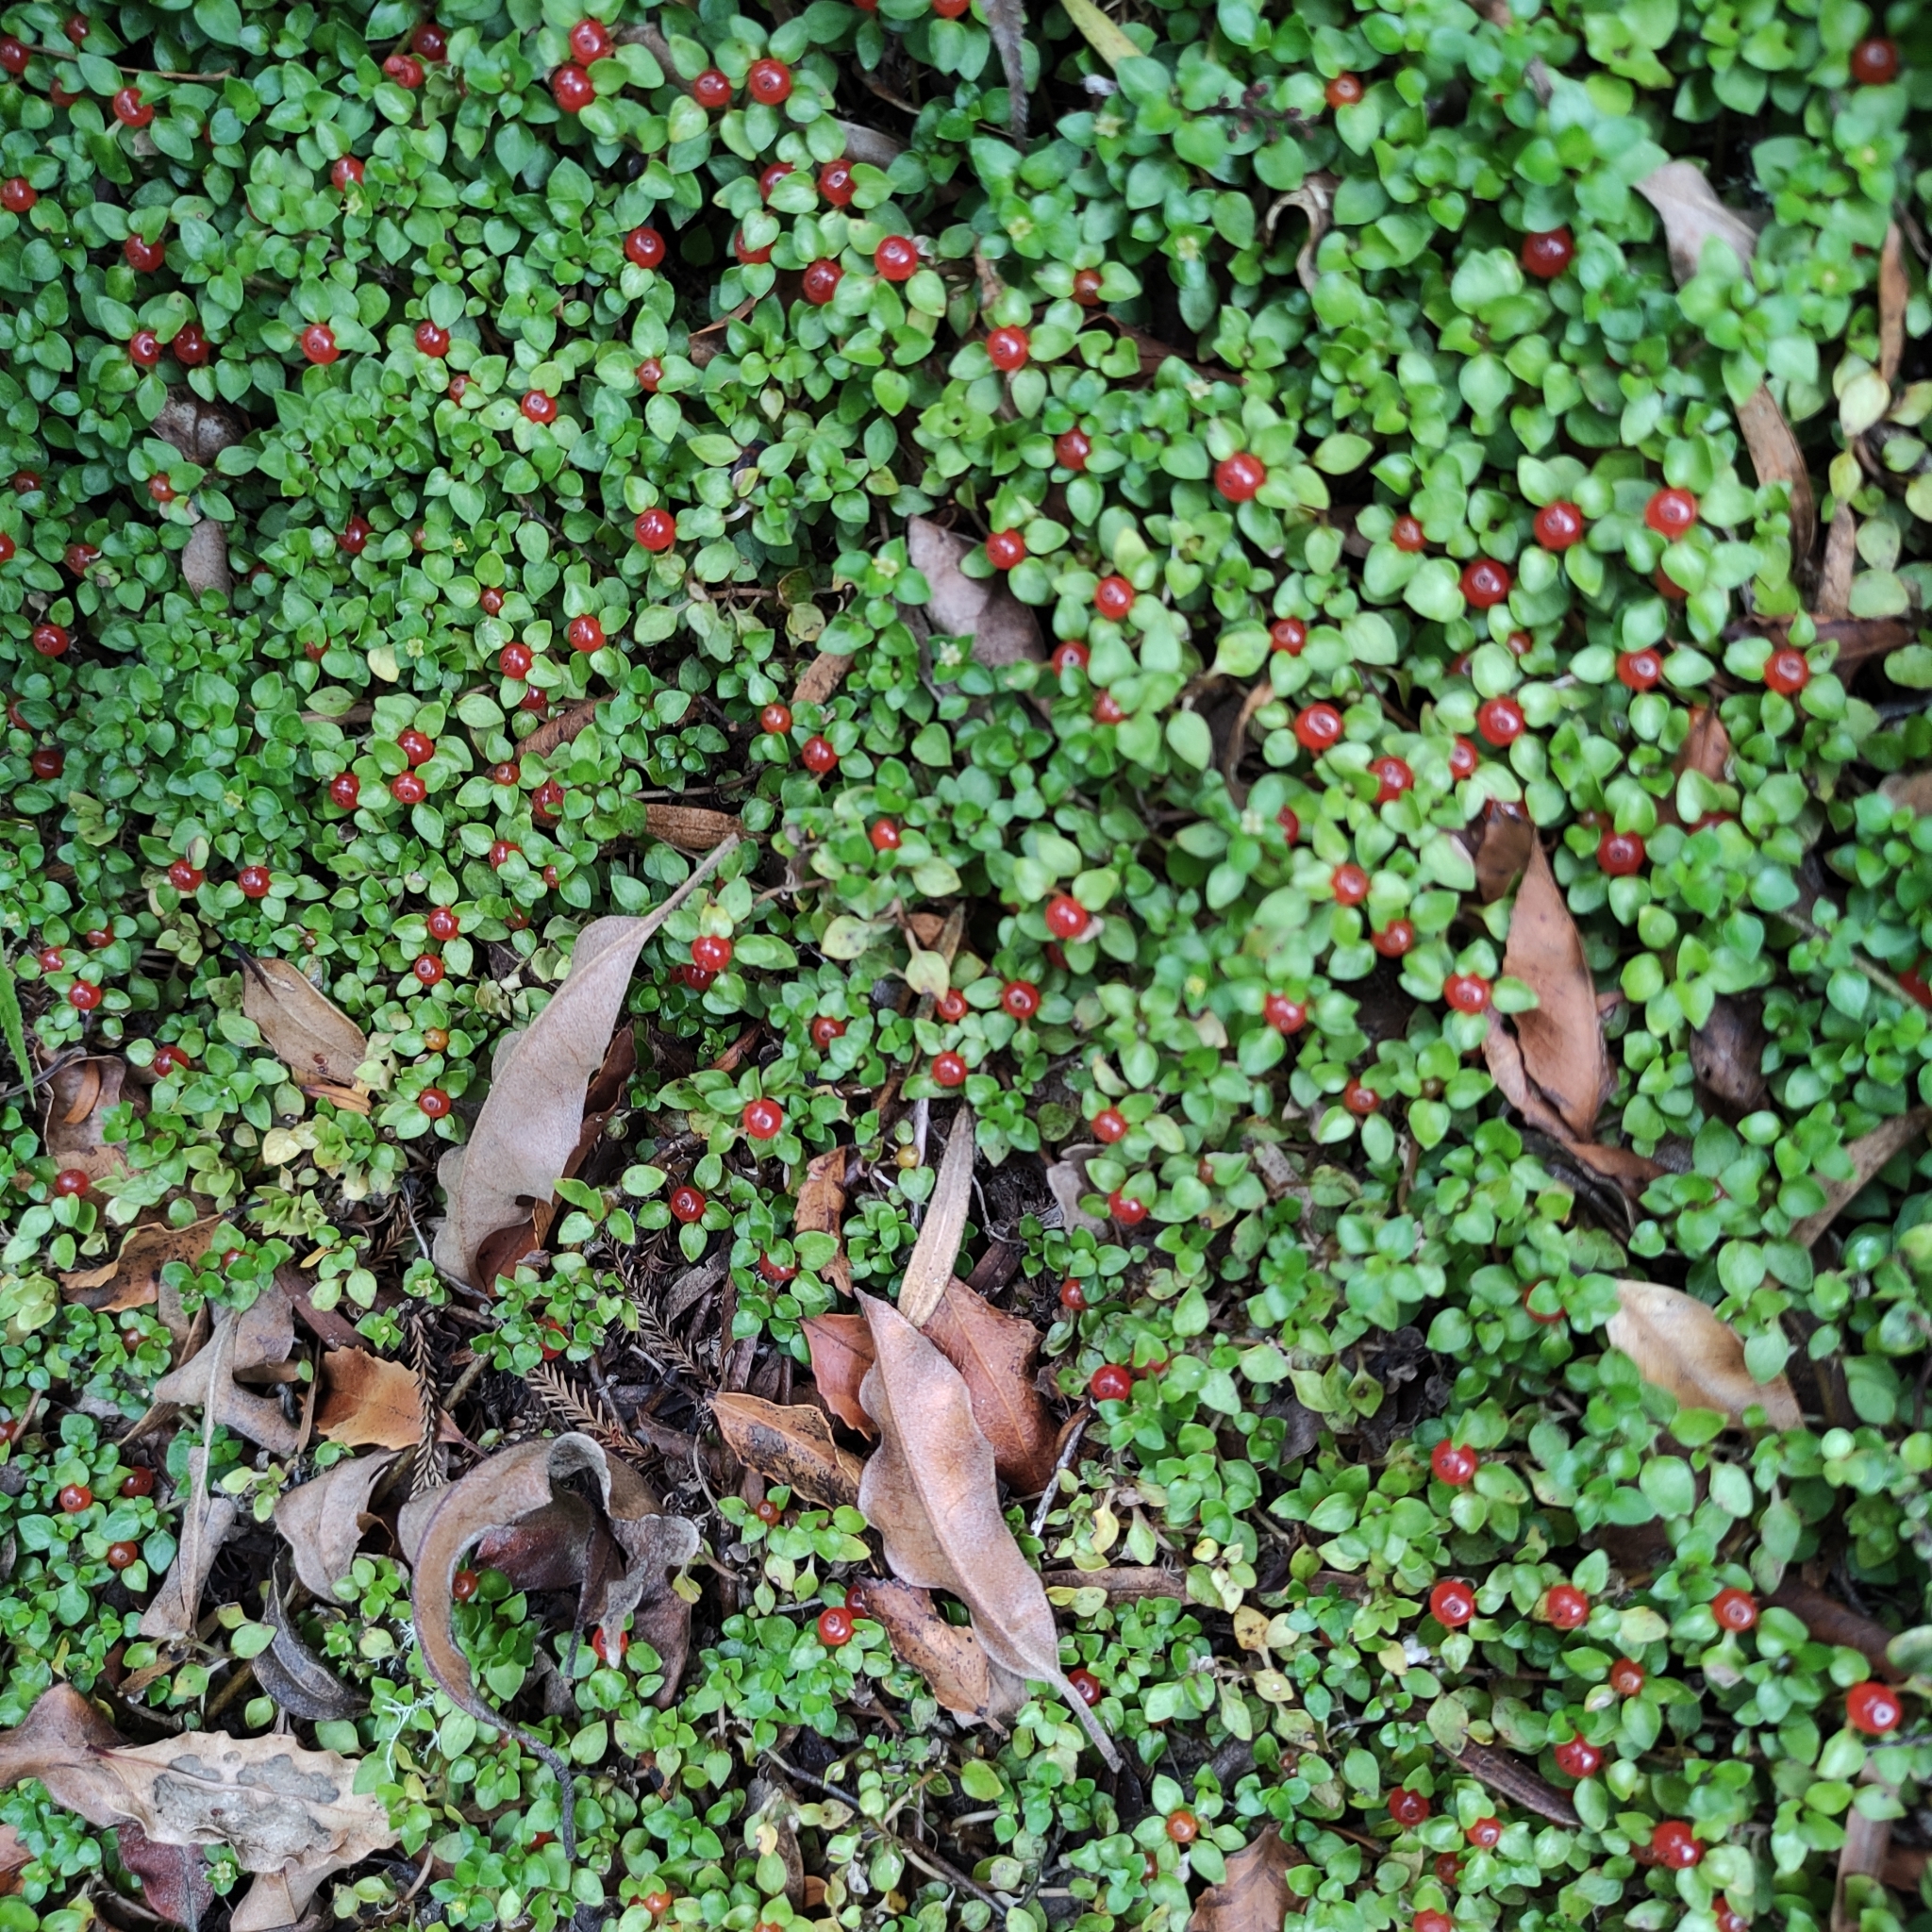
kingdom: Plantae
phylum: Tracheophyta
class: Magnoliopsida
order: Gentianales
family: Rubiaceae
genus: Nertera
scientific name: Nertera granadensis
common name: Beadplant
